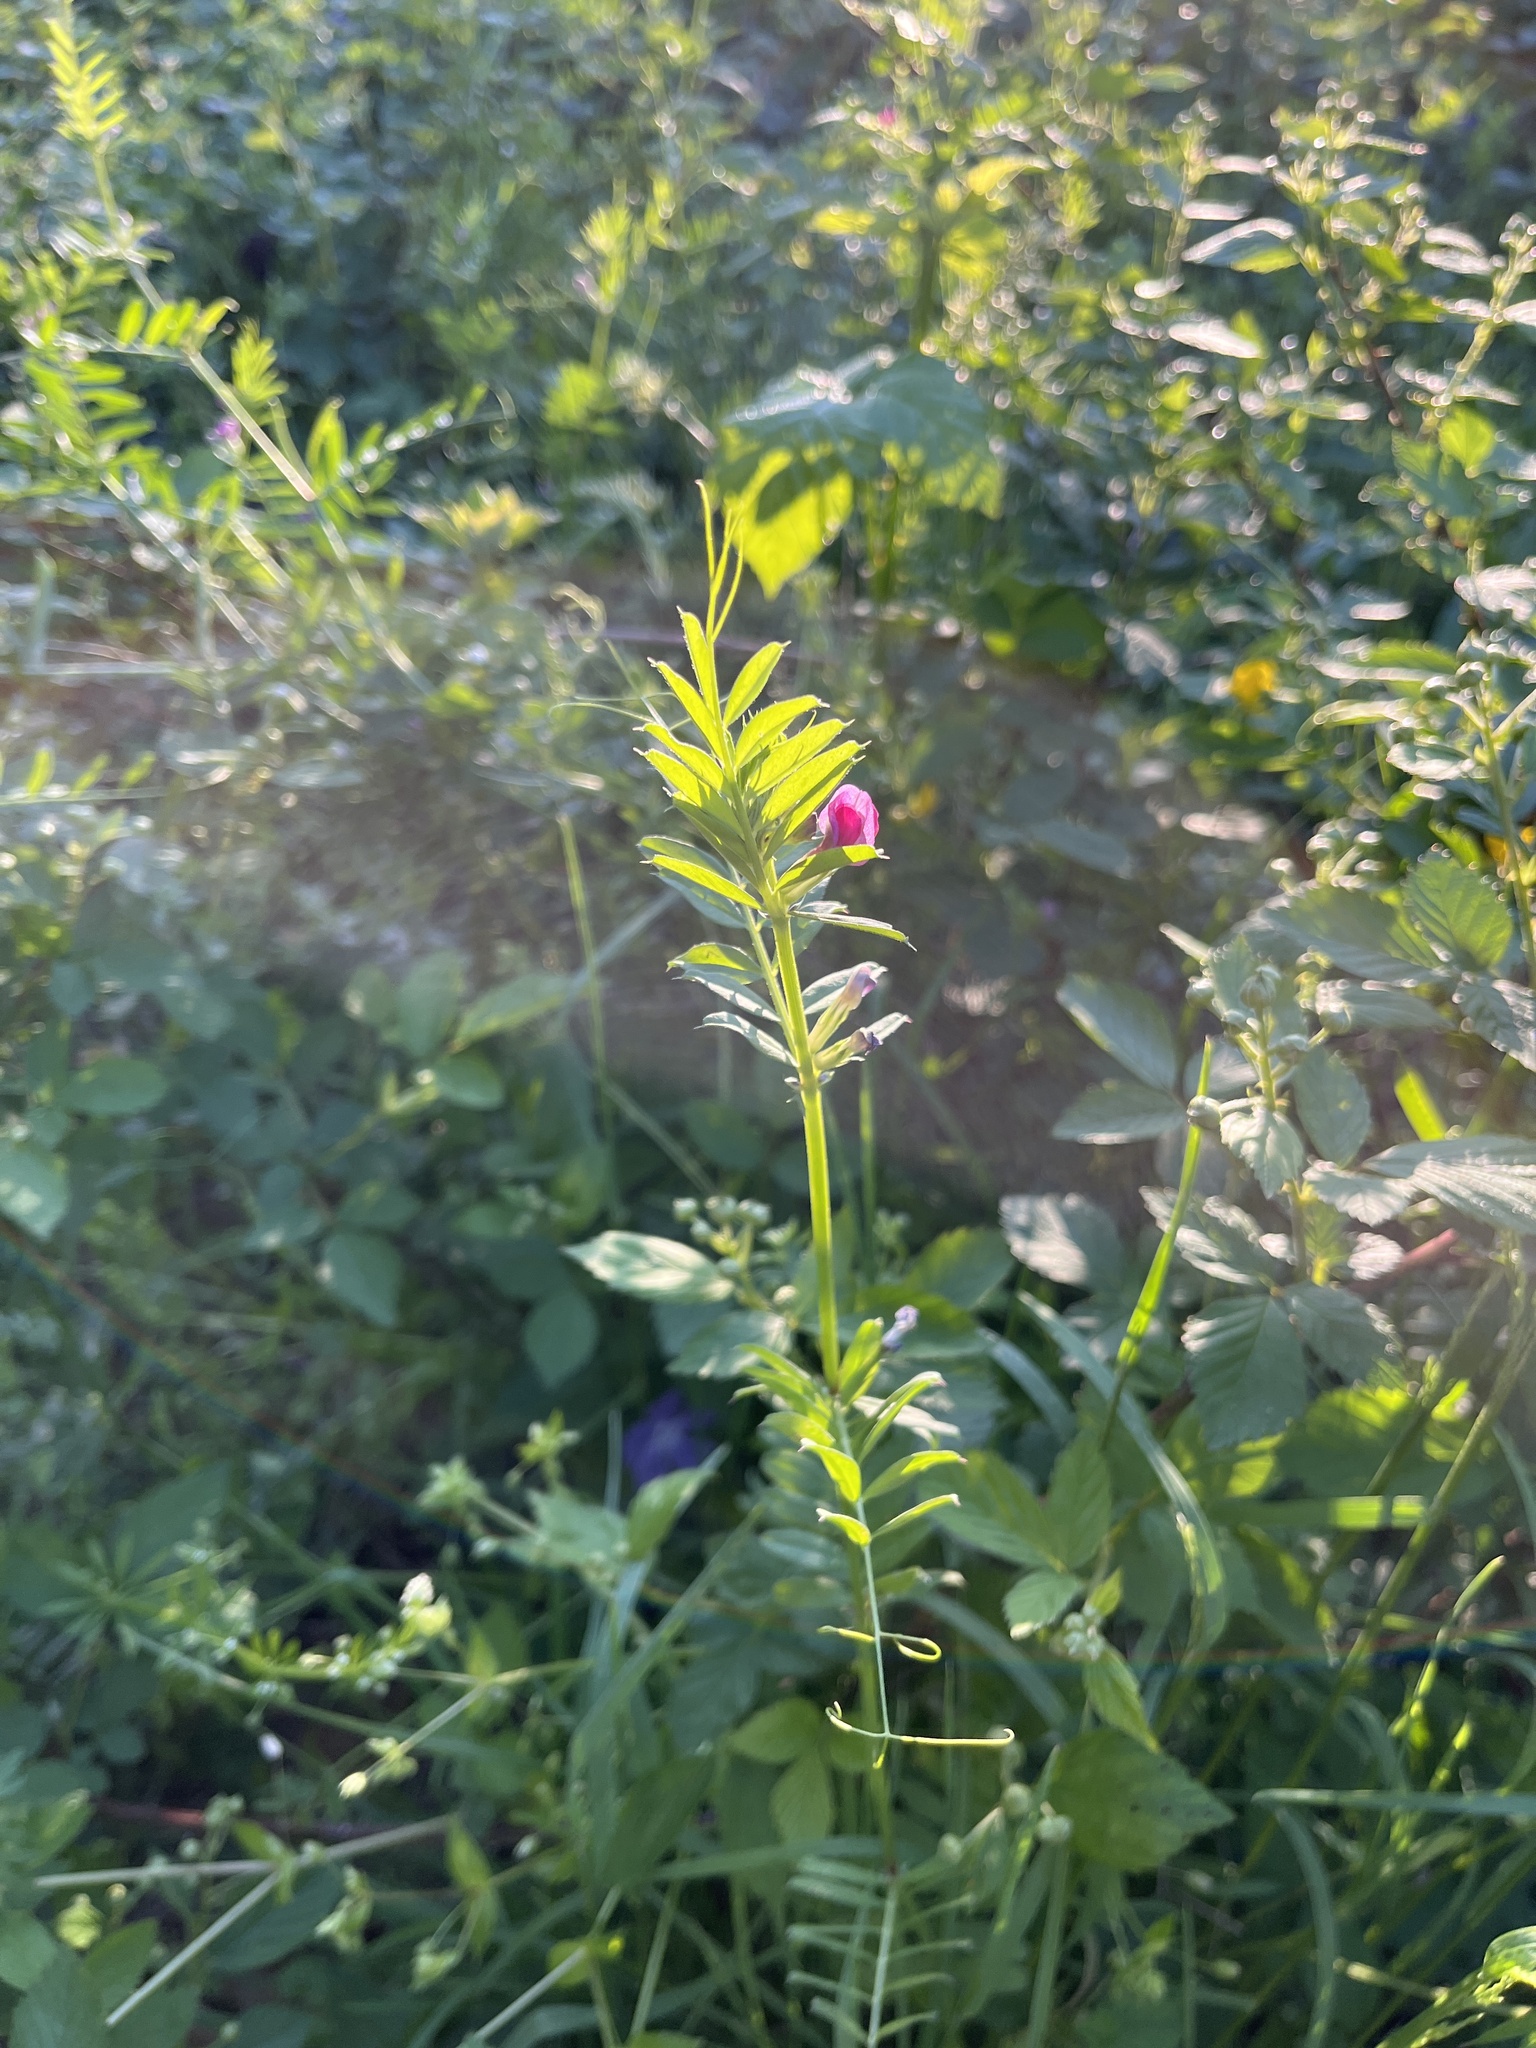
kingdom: Plantae
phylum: Tracheophyta
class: Magnoliopsida
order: Fabales
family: Fabaceae
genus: Vicia
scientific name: Vicia sativa
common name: Garden vetch
